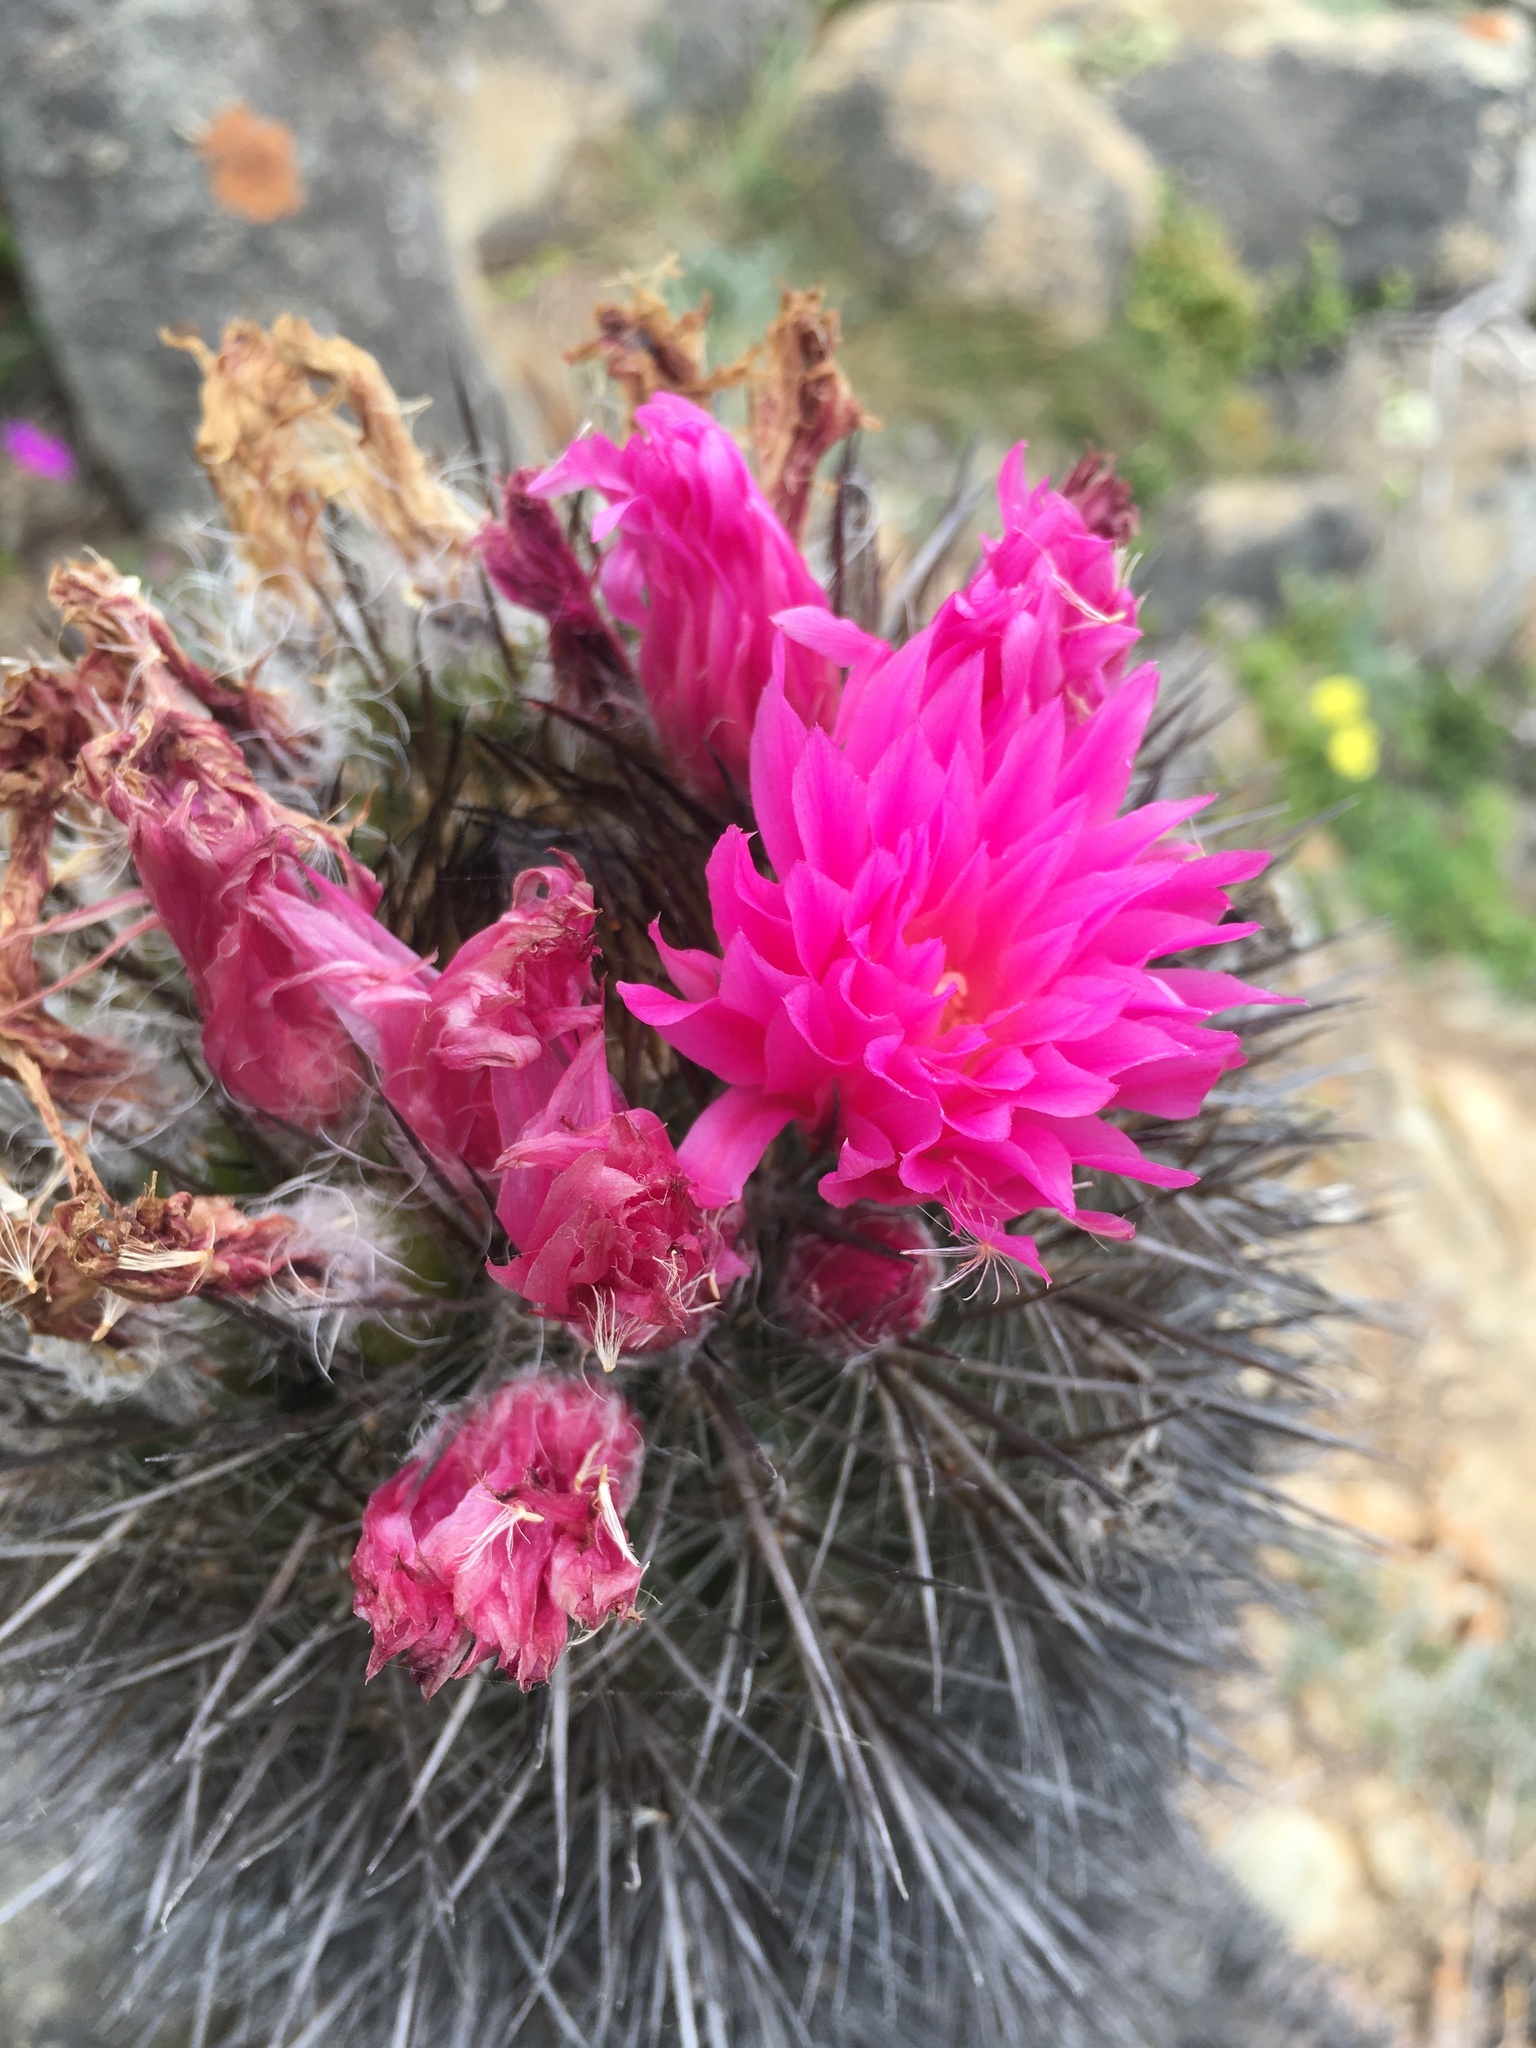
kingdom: Plantae
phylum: Tracheophyta
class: Magnoliopsida
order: Caryophyllales
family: Cactaceae
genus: Eriosyce
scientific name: Eriosyce chilensis
